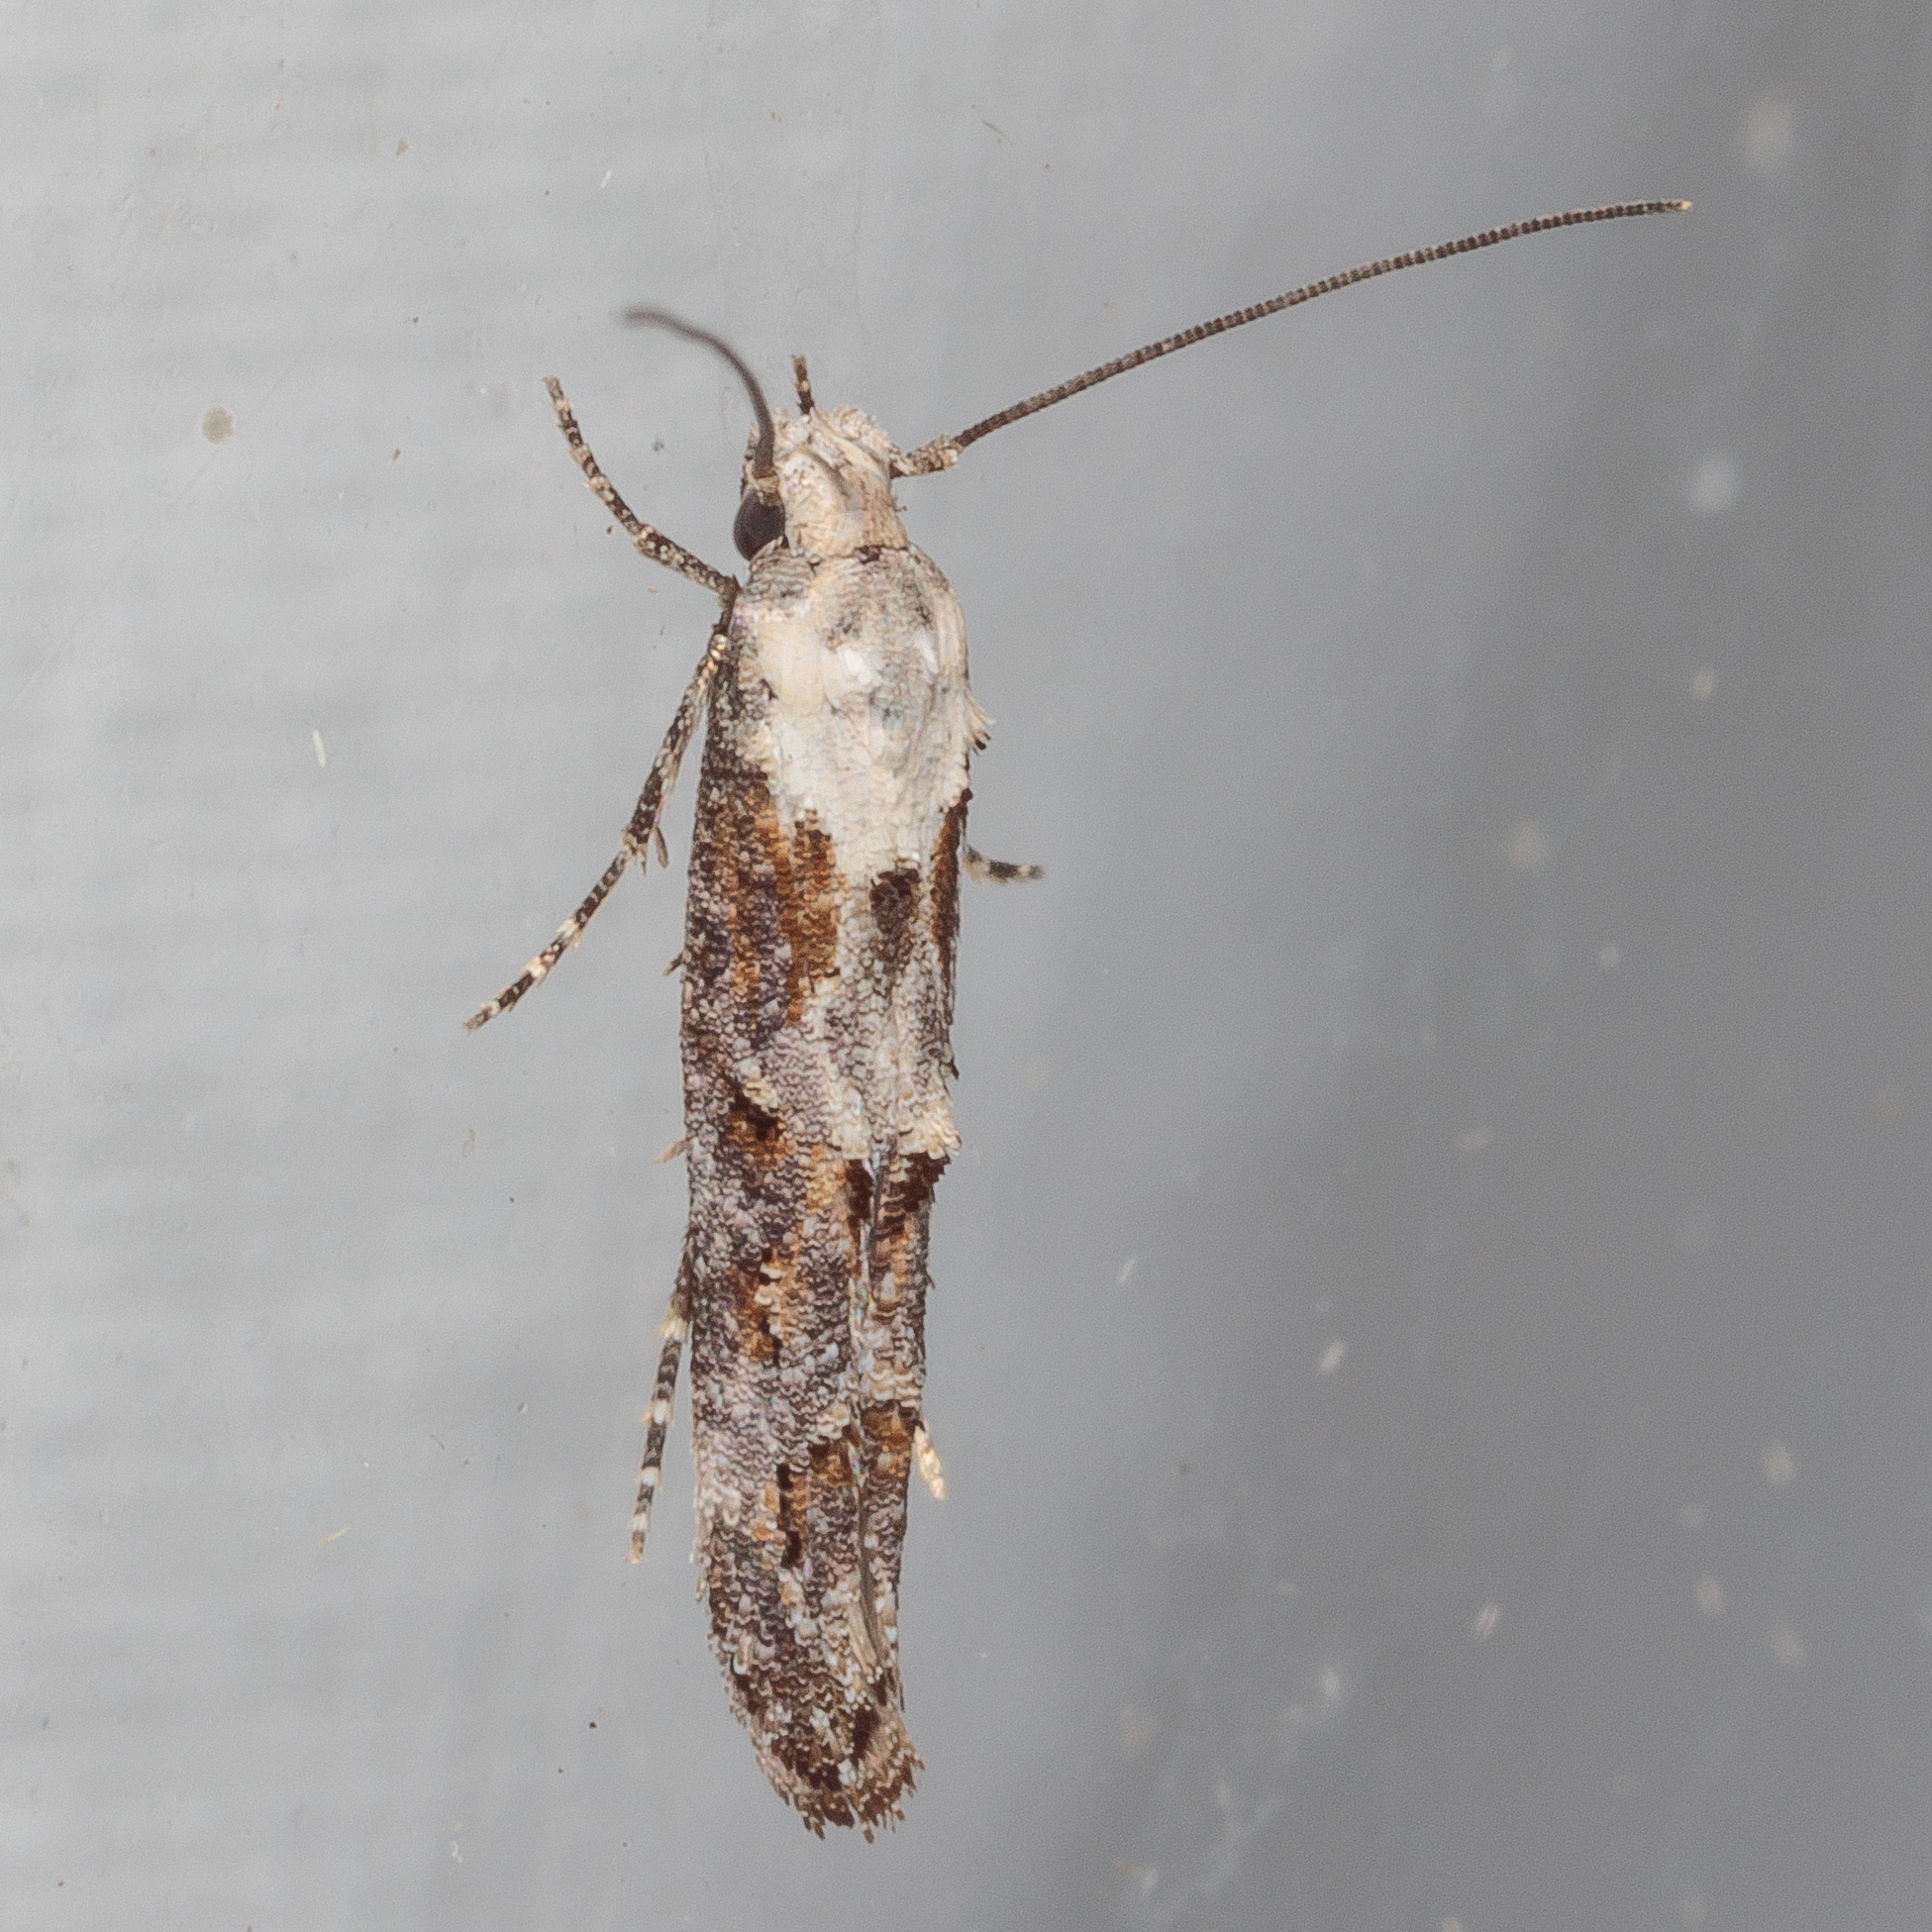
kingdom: Animalia
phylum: Arthropoda
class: Insecta
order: Lepidoptera
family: Momphidae
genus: Mompha
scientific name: Mompha albocapitella
